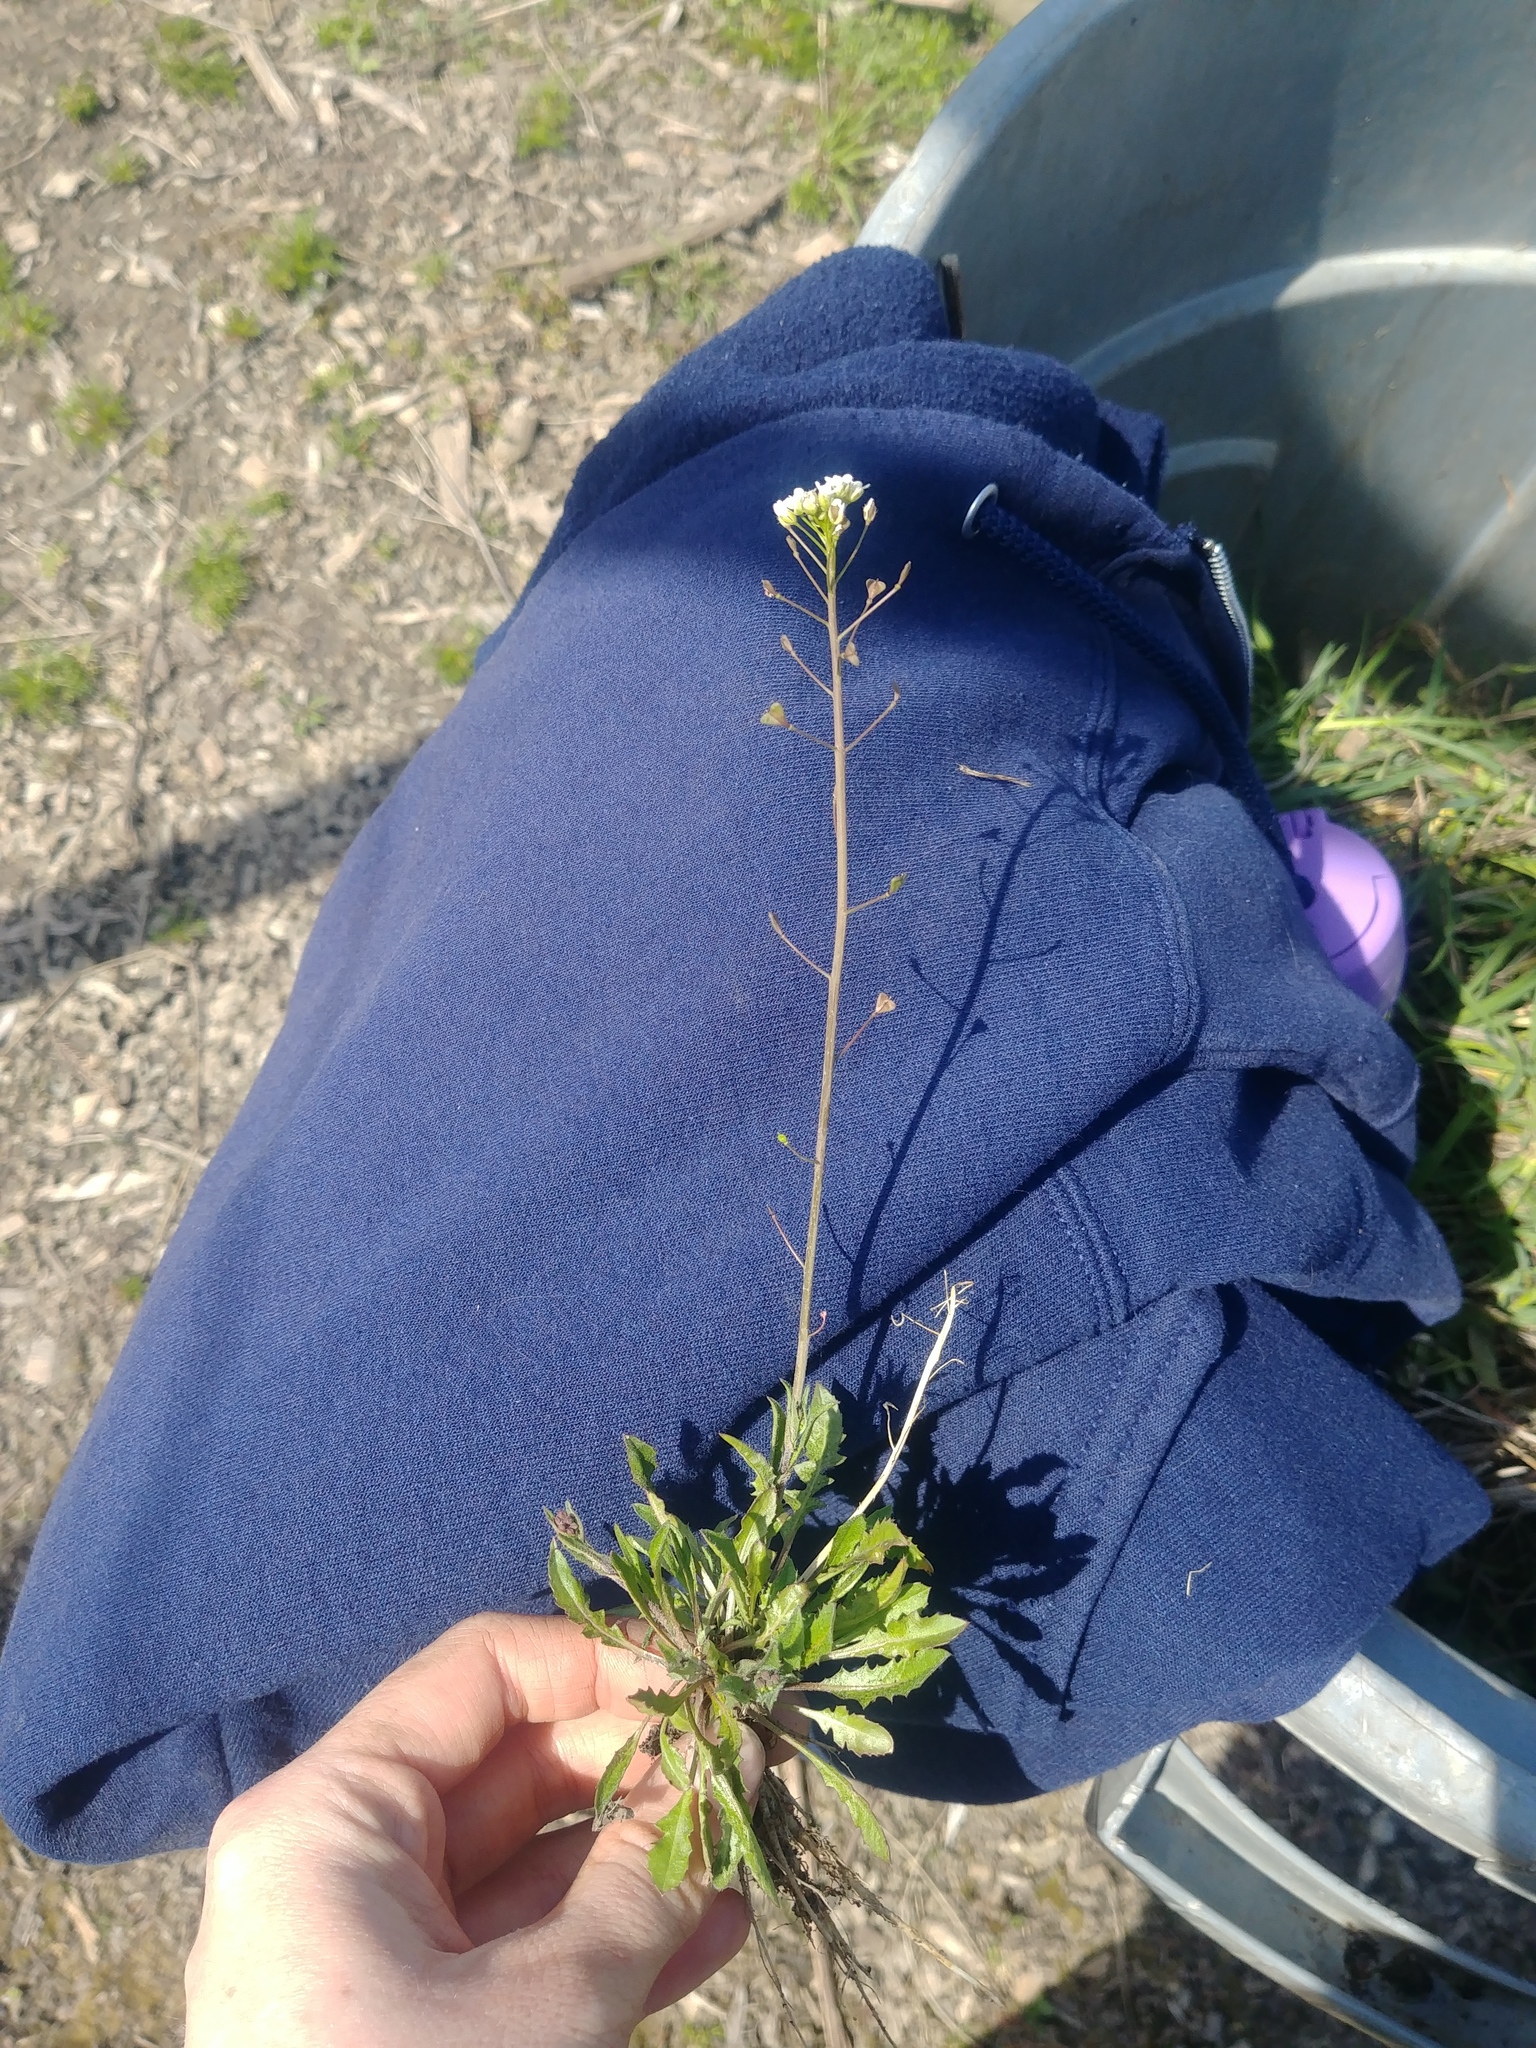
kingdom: Plantae
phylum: Tracheophyta
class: Magnoliopsida
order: Brassicales
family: Brassicaceae
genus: Capsella
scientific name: Capsella bursa-pastoris
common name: Shepherd's purse
